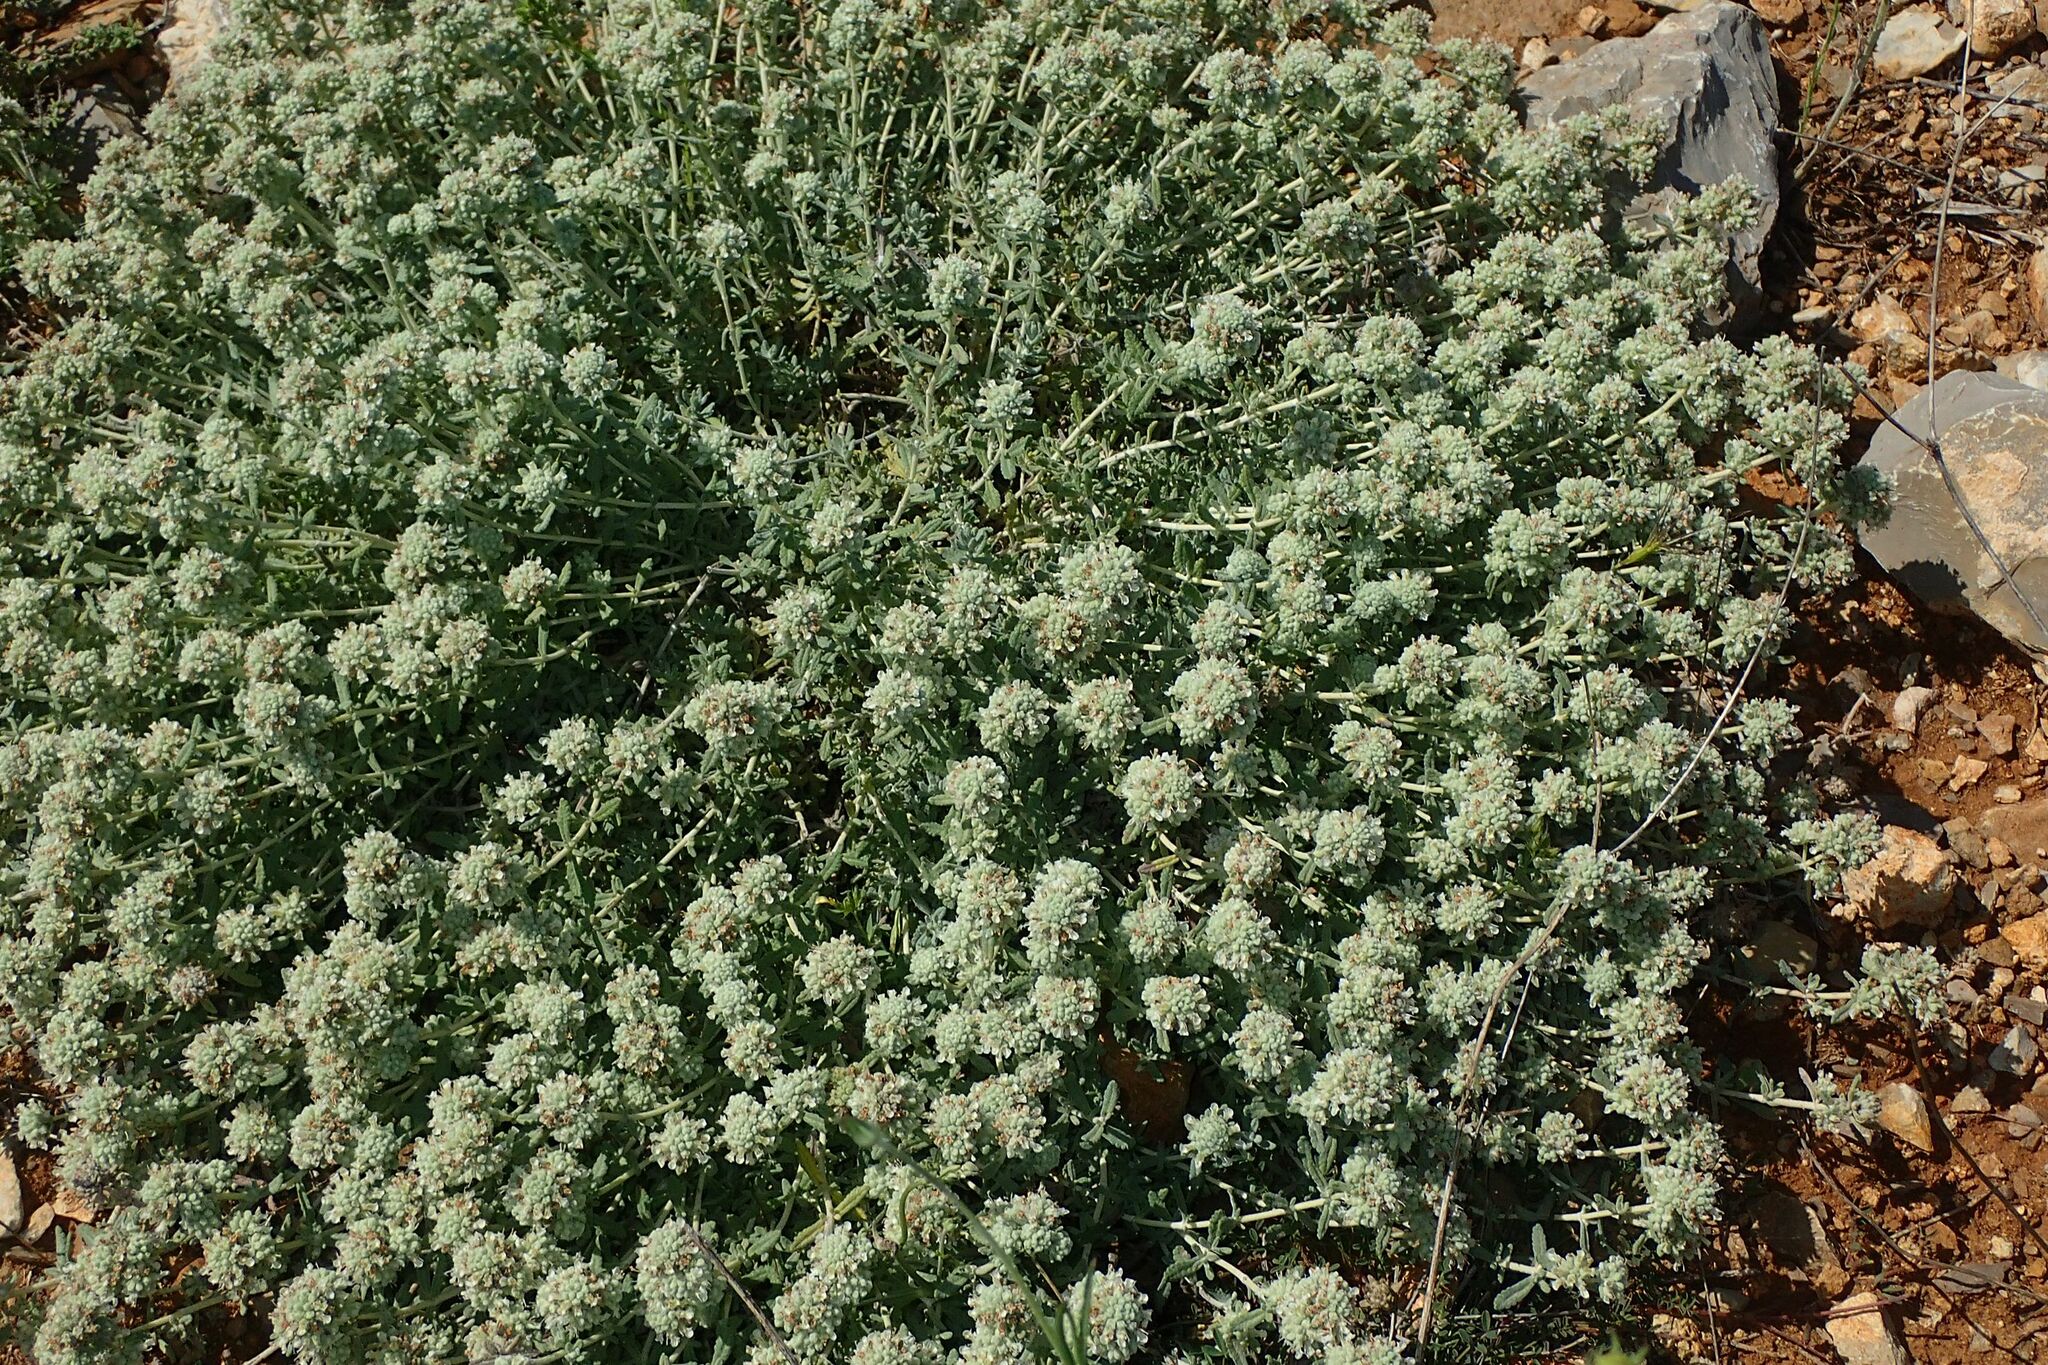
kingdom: Plantae
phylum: Tracheophyta
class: Magnoliopsida
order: Lamiales
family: Lamiaceae
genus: Teucrium
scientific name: Teucrium polium
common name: Poley
